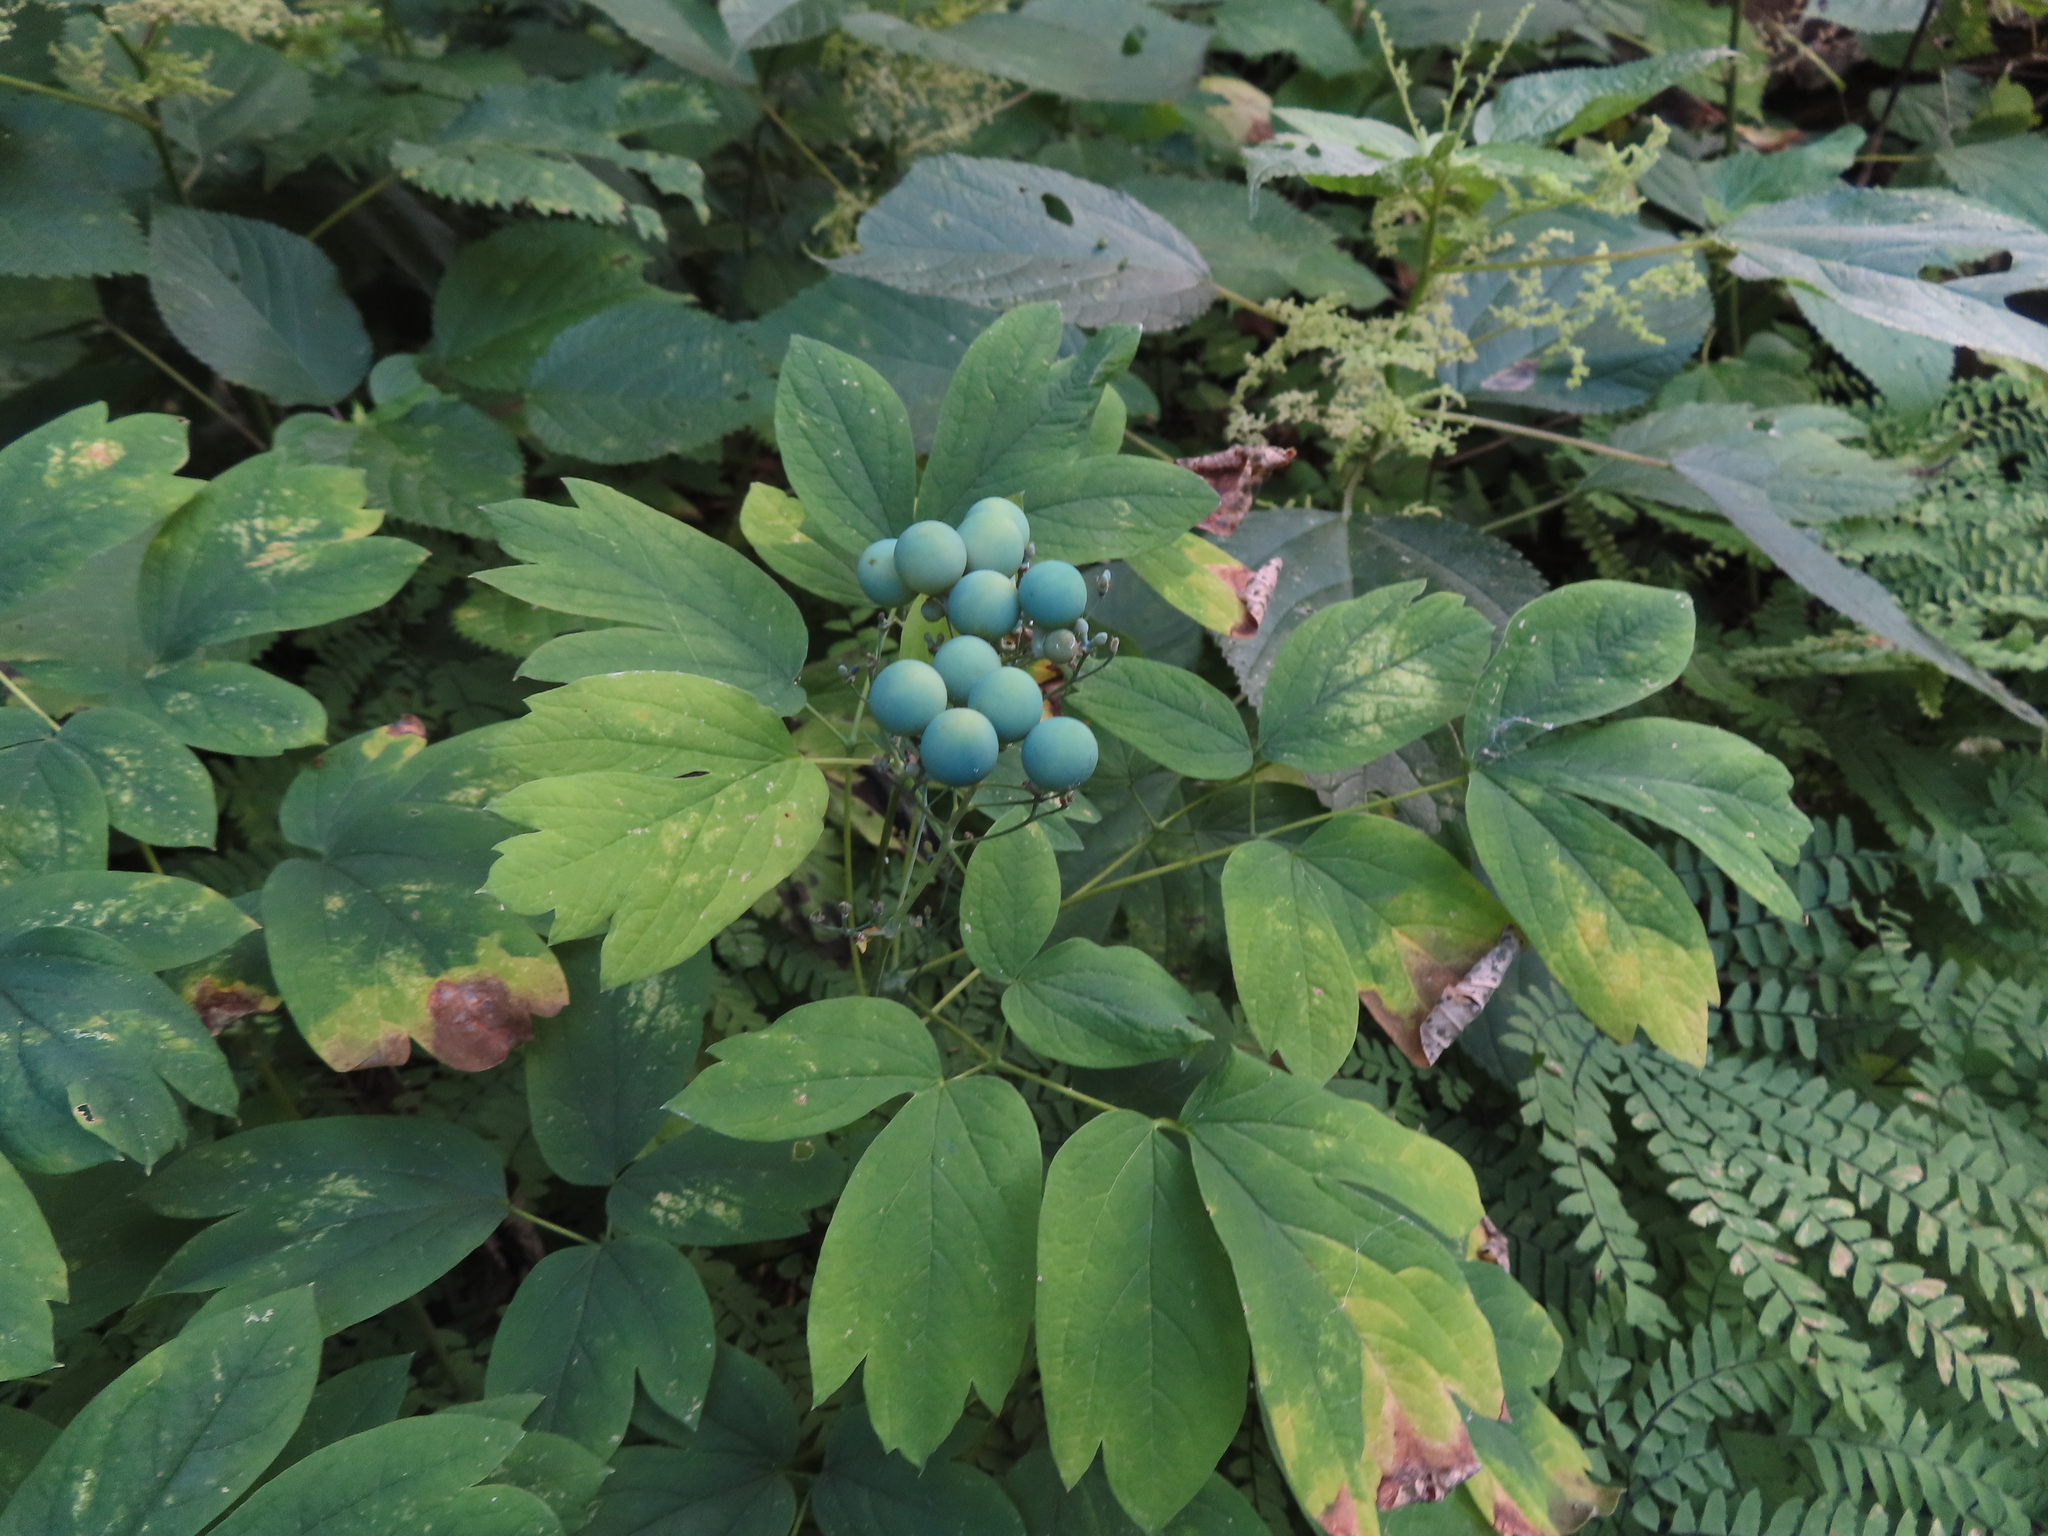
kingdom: Plantae
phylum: Tracheophyta
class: Magnoliopsida
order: Ranunculales
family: Berberidaceae
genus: Caulophyllum
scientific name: Caulophyllum thalictroides
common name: Blue cohosh
